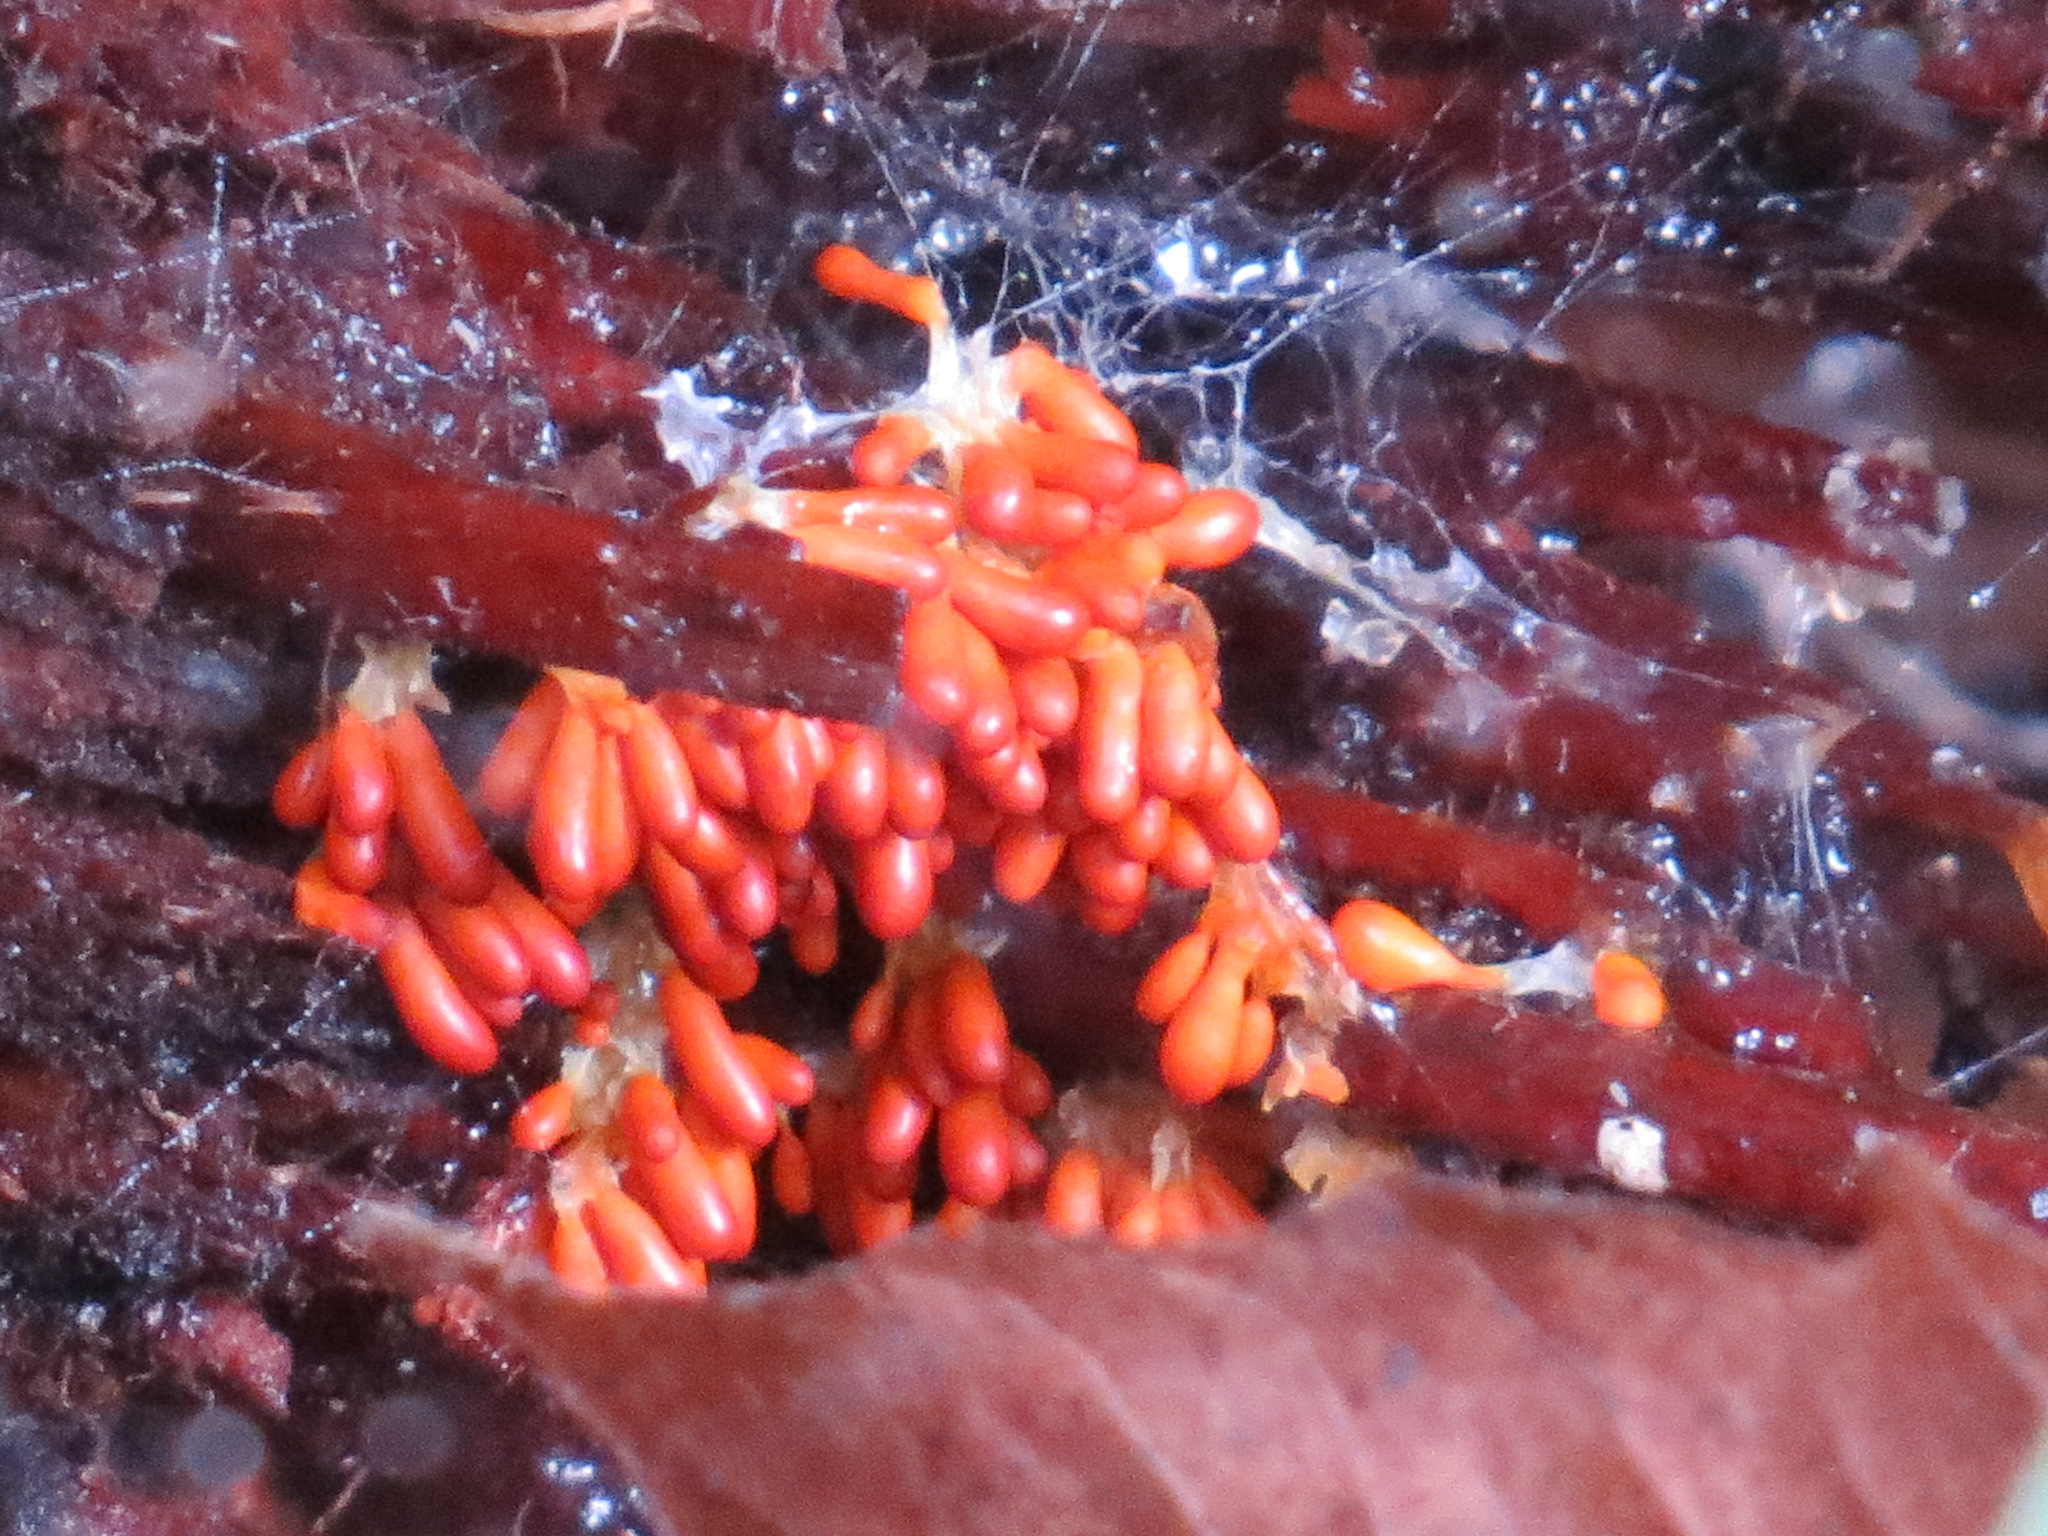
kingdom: Protozoa
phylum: Mycetozoa
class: Myxomycetes
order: Physarales
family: Physaraceae
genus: Leocarpus
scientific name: Leocarpus fragilis
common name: Insect-egg slime
